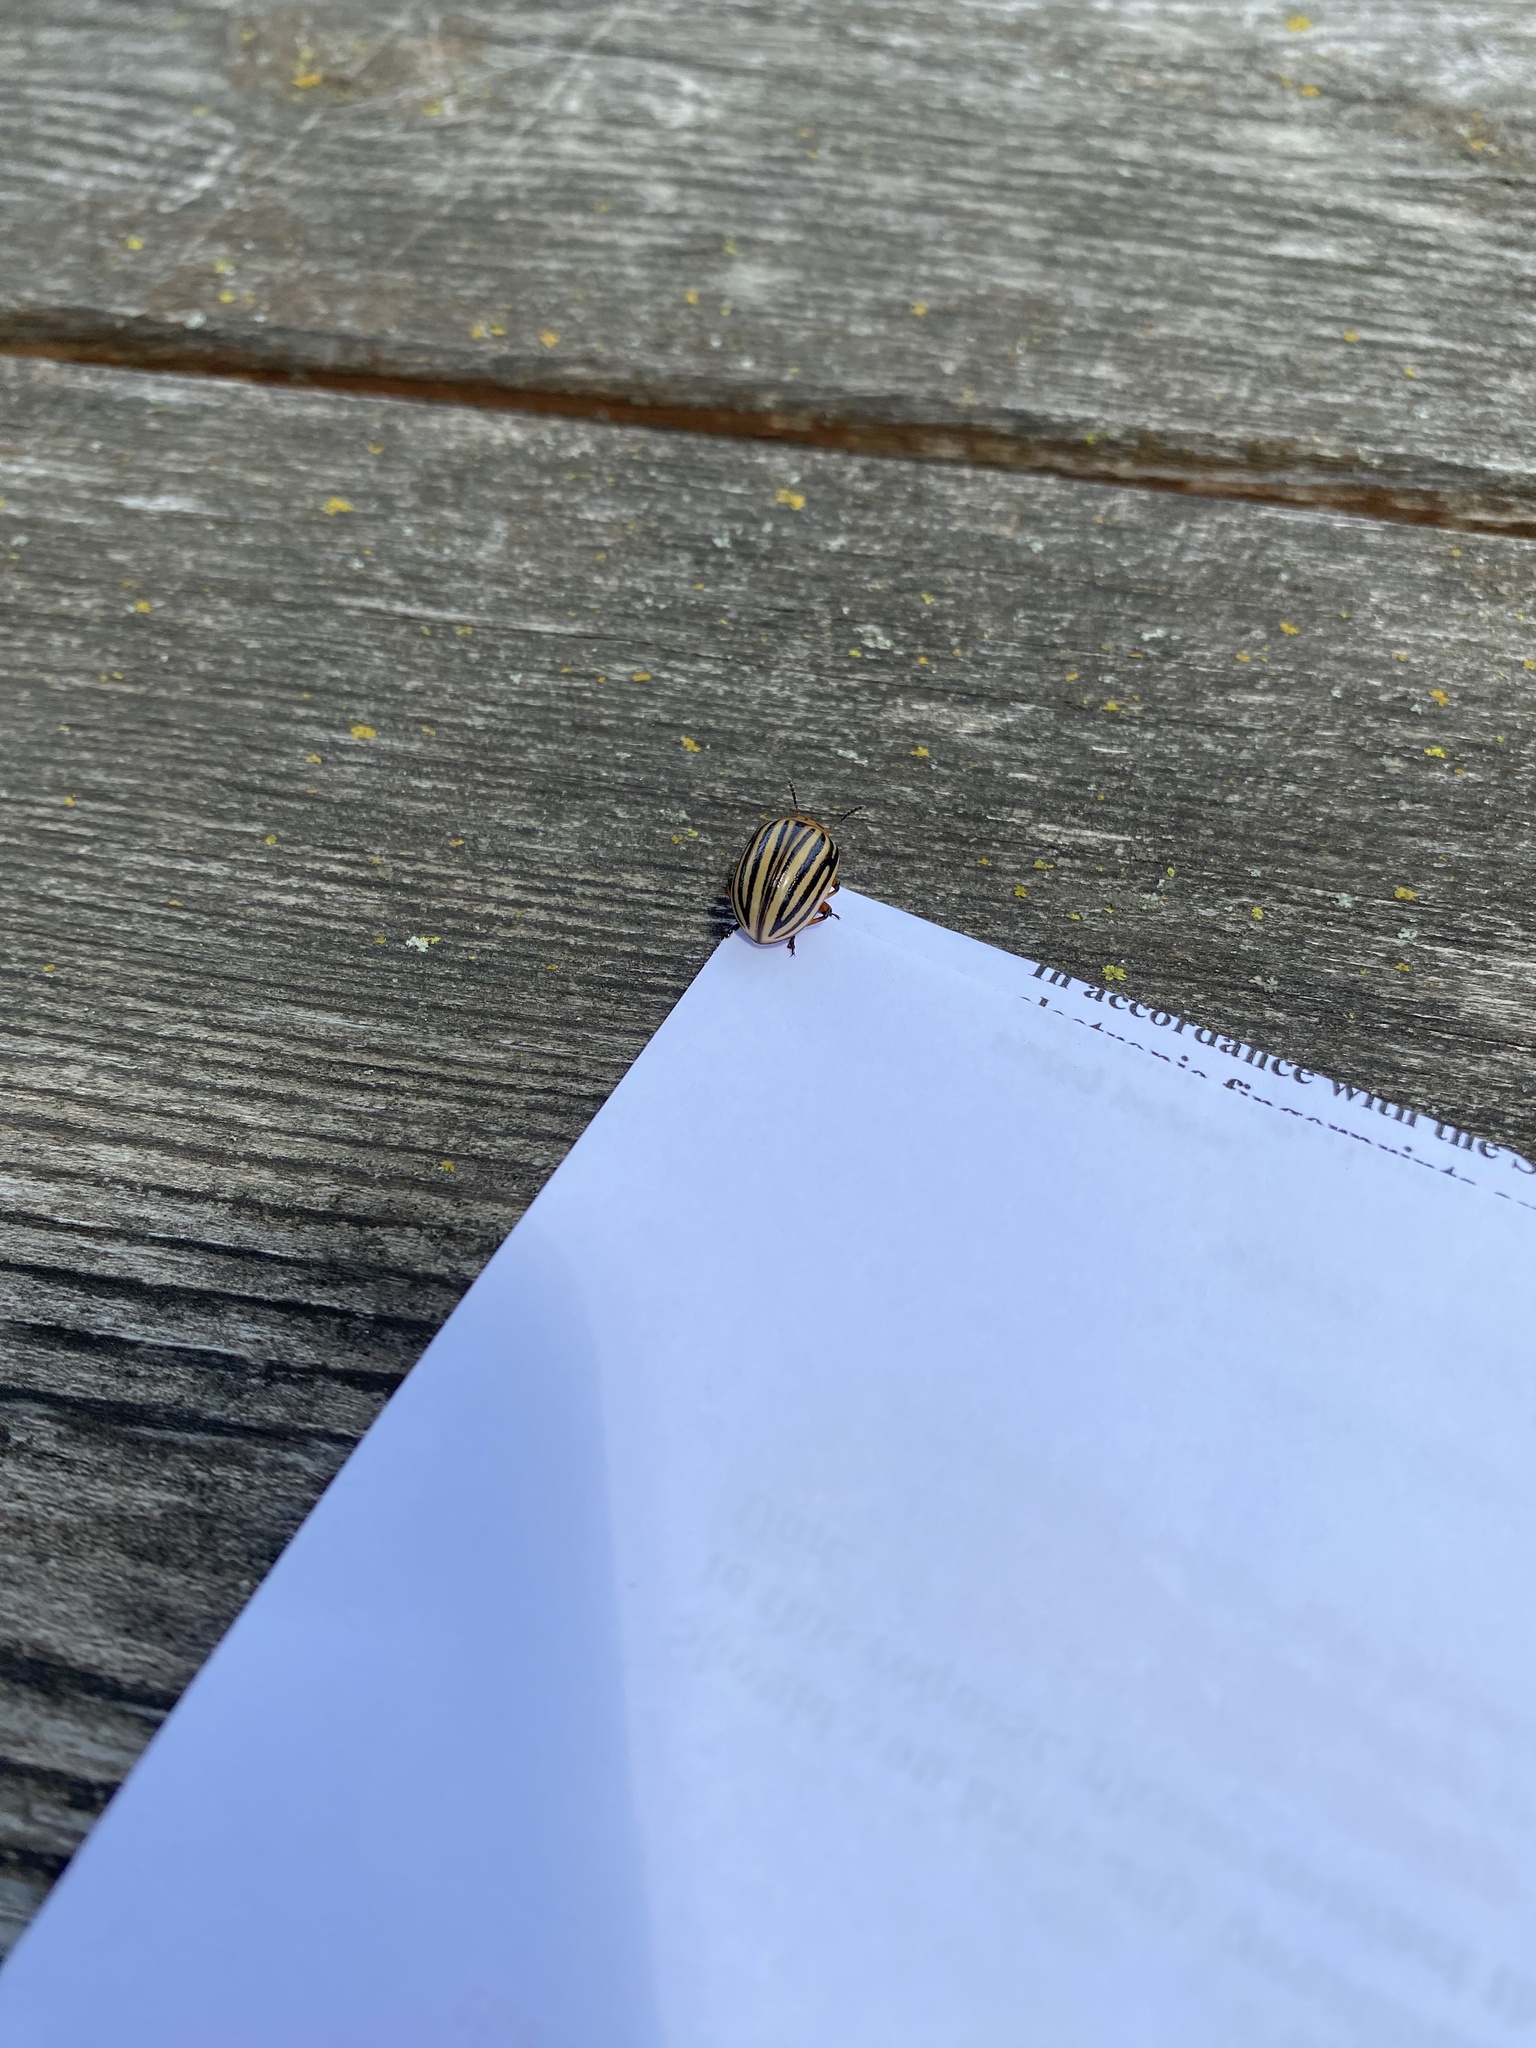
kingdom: Animalia
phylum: Arthropoda
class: Insecta
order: Coleoptera
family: Chrysomelidae
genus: Leptinotarsa
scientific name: Leptinotarsa decemlineata
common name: Colorado potato beetle
